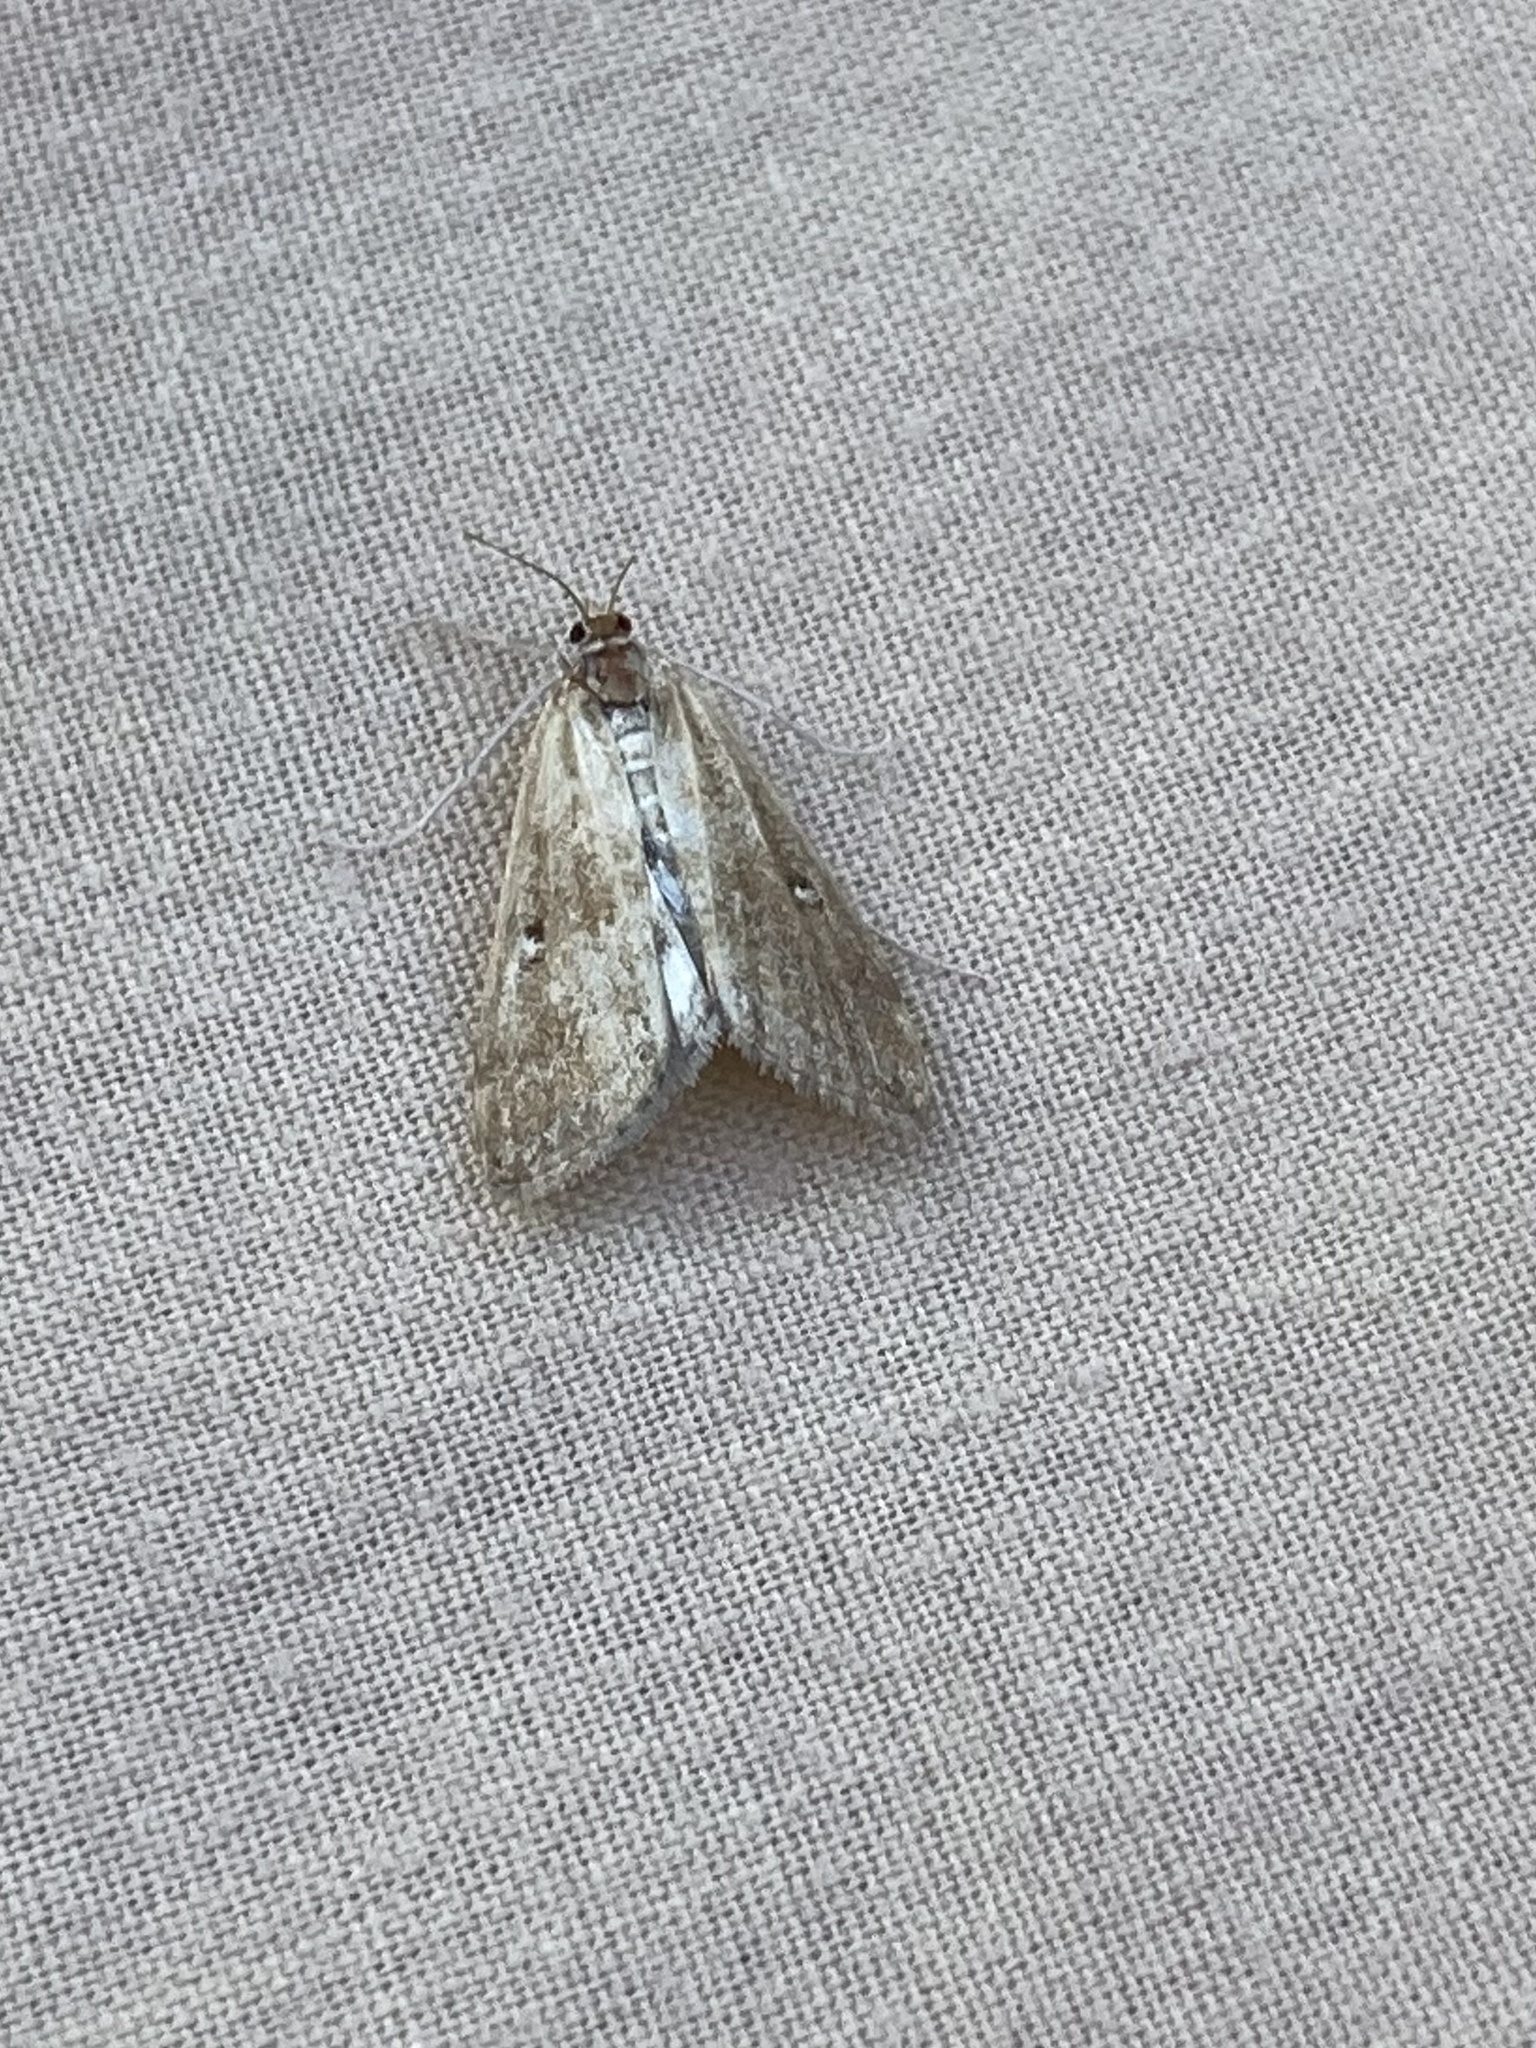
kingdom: Animalia
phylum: Arthropoda
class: Insecta
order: Lepidoptera
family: Crambidae
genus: Parapoynx
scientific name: Parapoynx stratiotata
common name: Ringed china-mark
